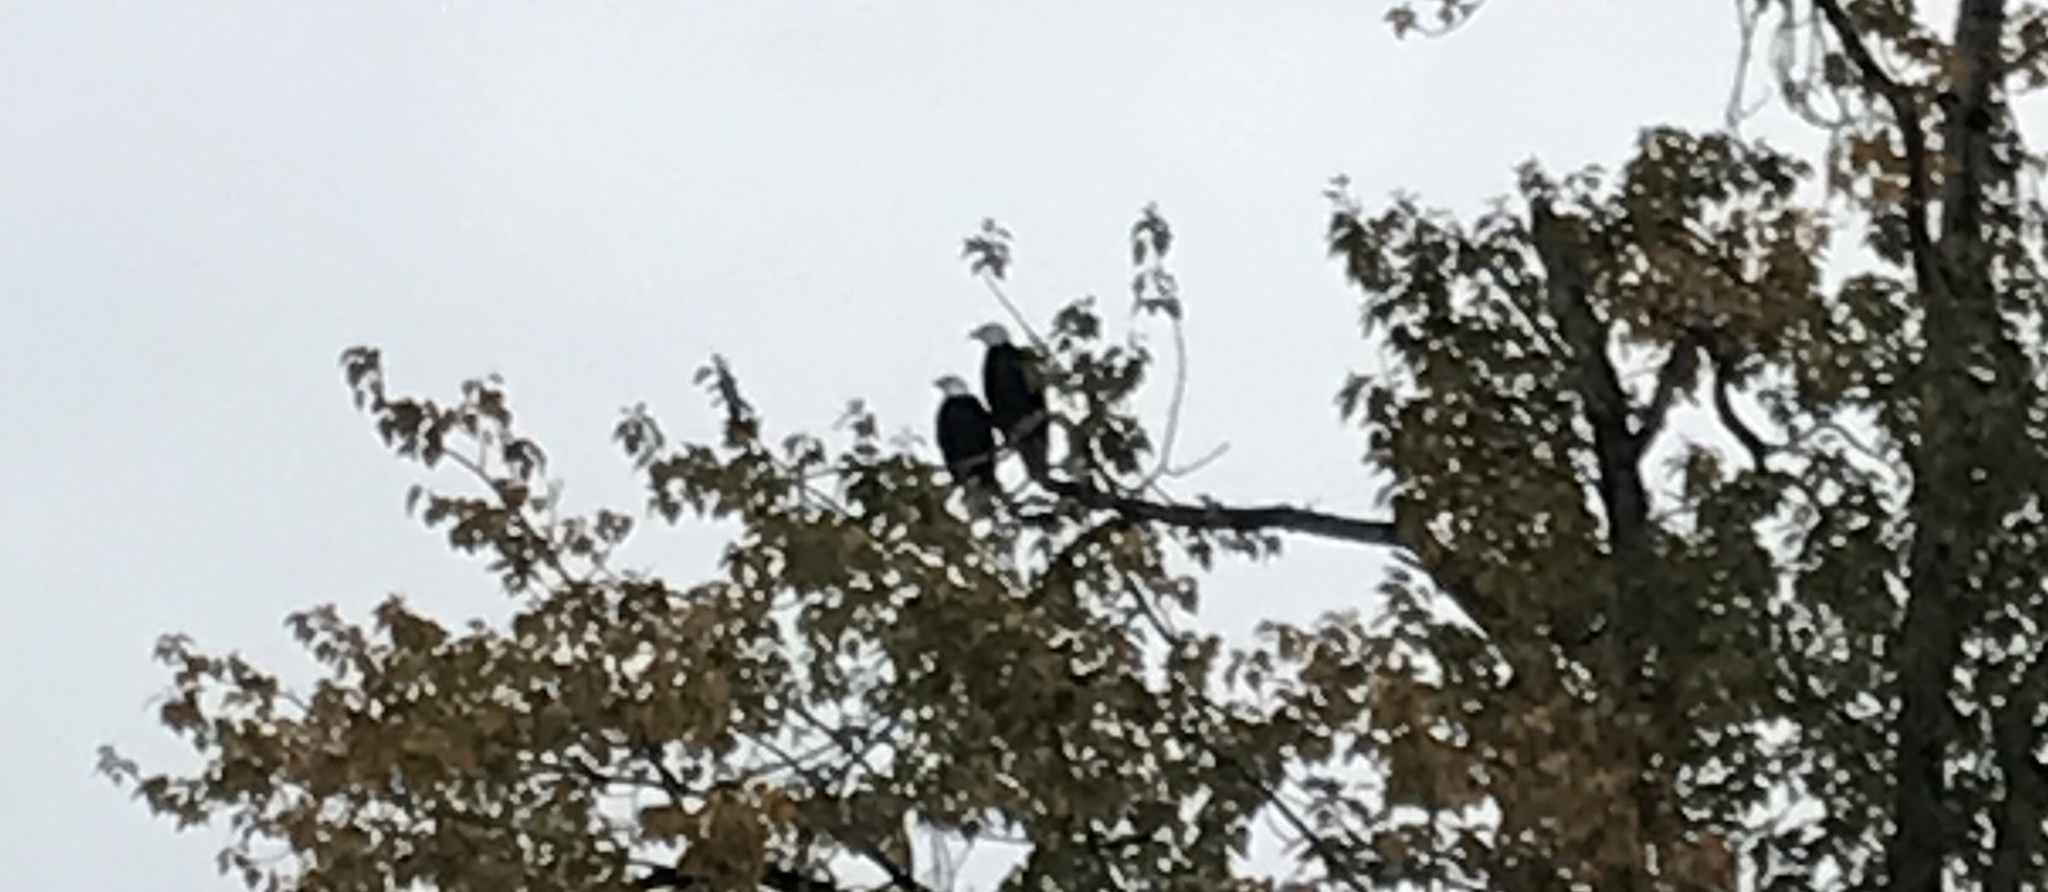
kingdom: Animalia
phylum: Chordata
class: Aves
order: Accipitriformes
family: Accipitridae
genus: Haliaeetus
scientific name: Haliaeetus leucocephalus
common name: Bald eagle
